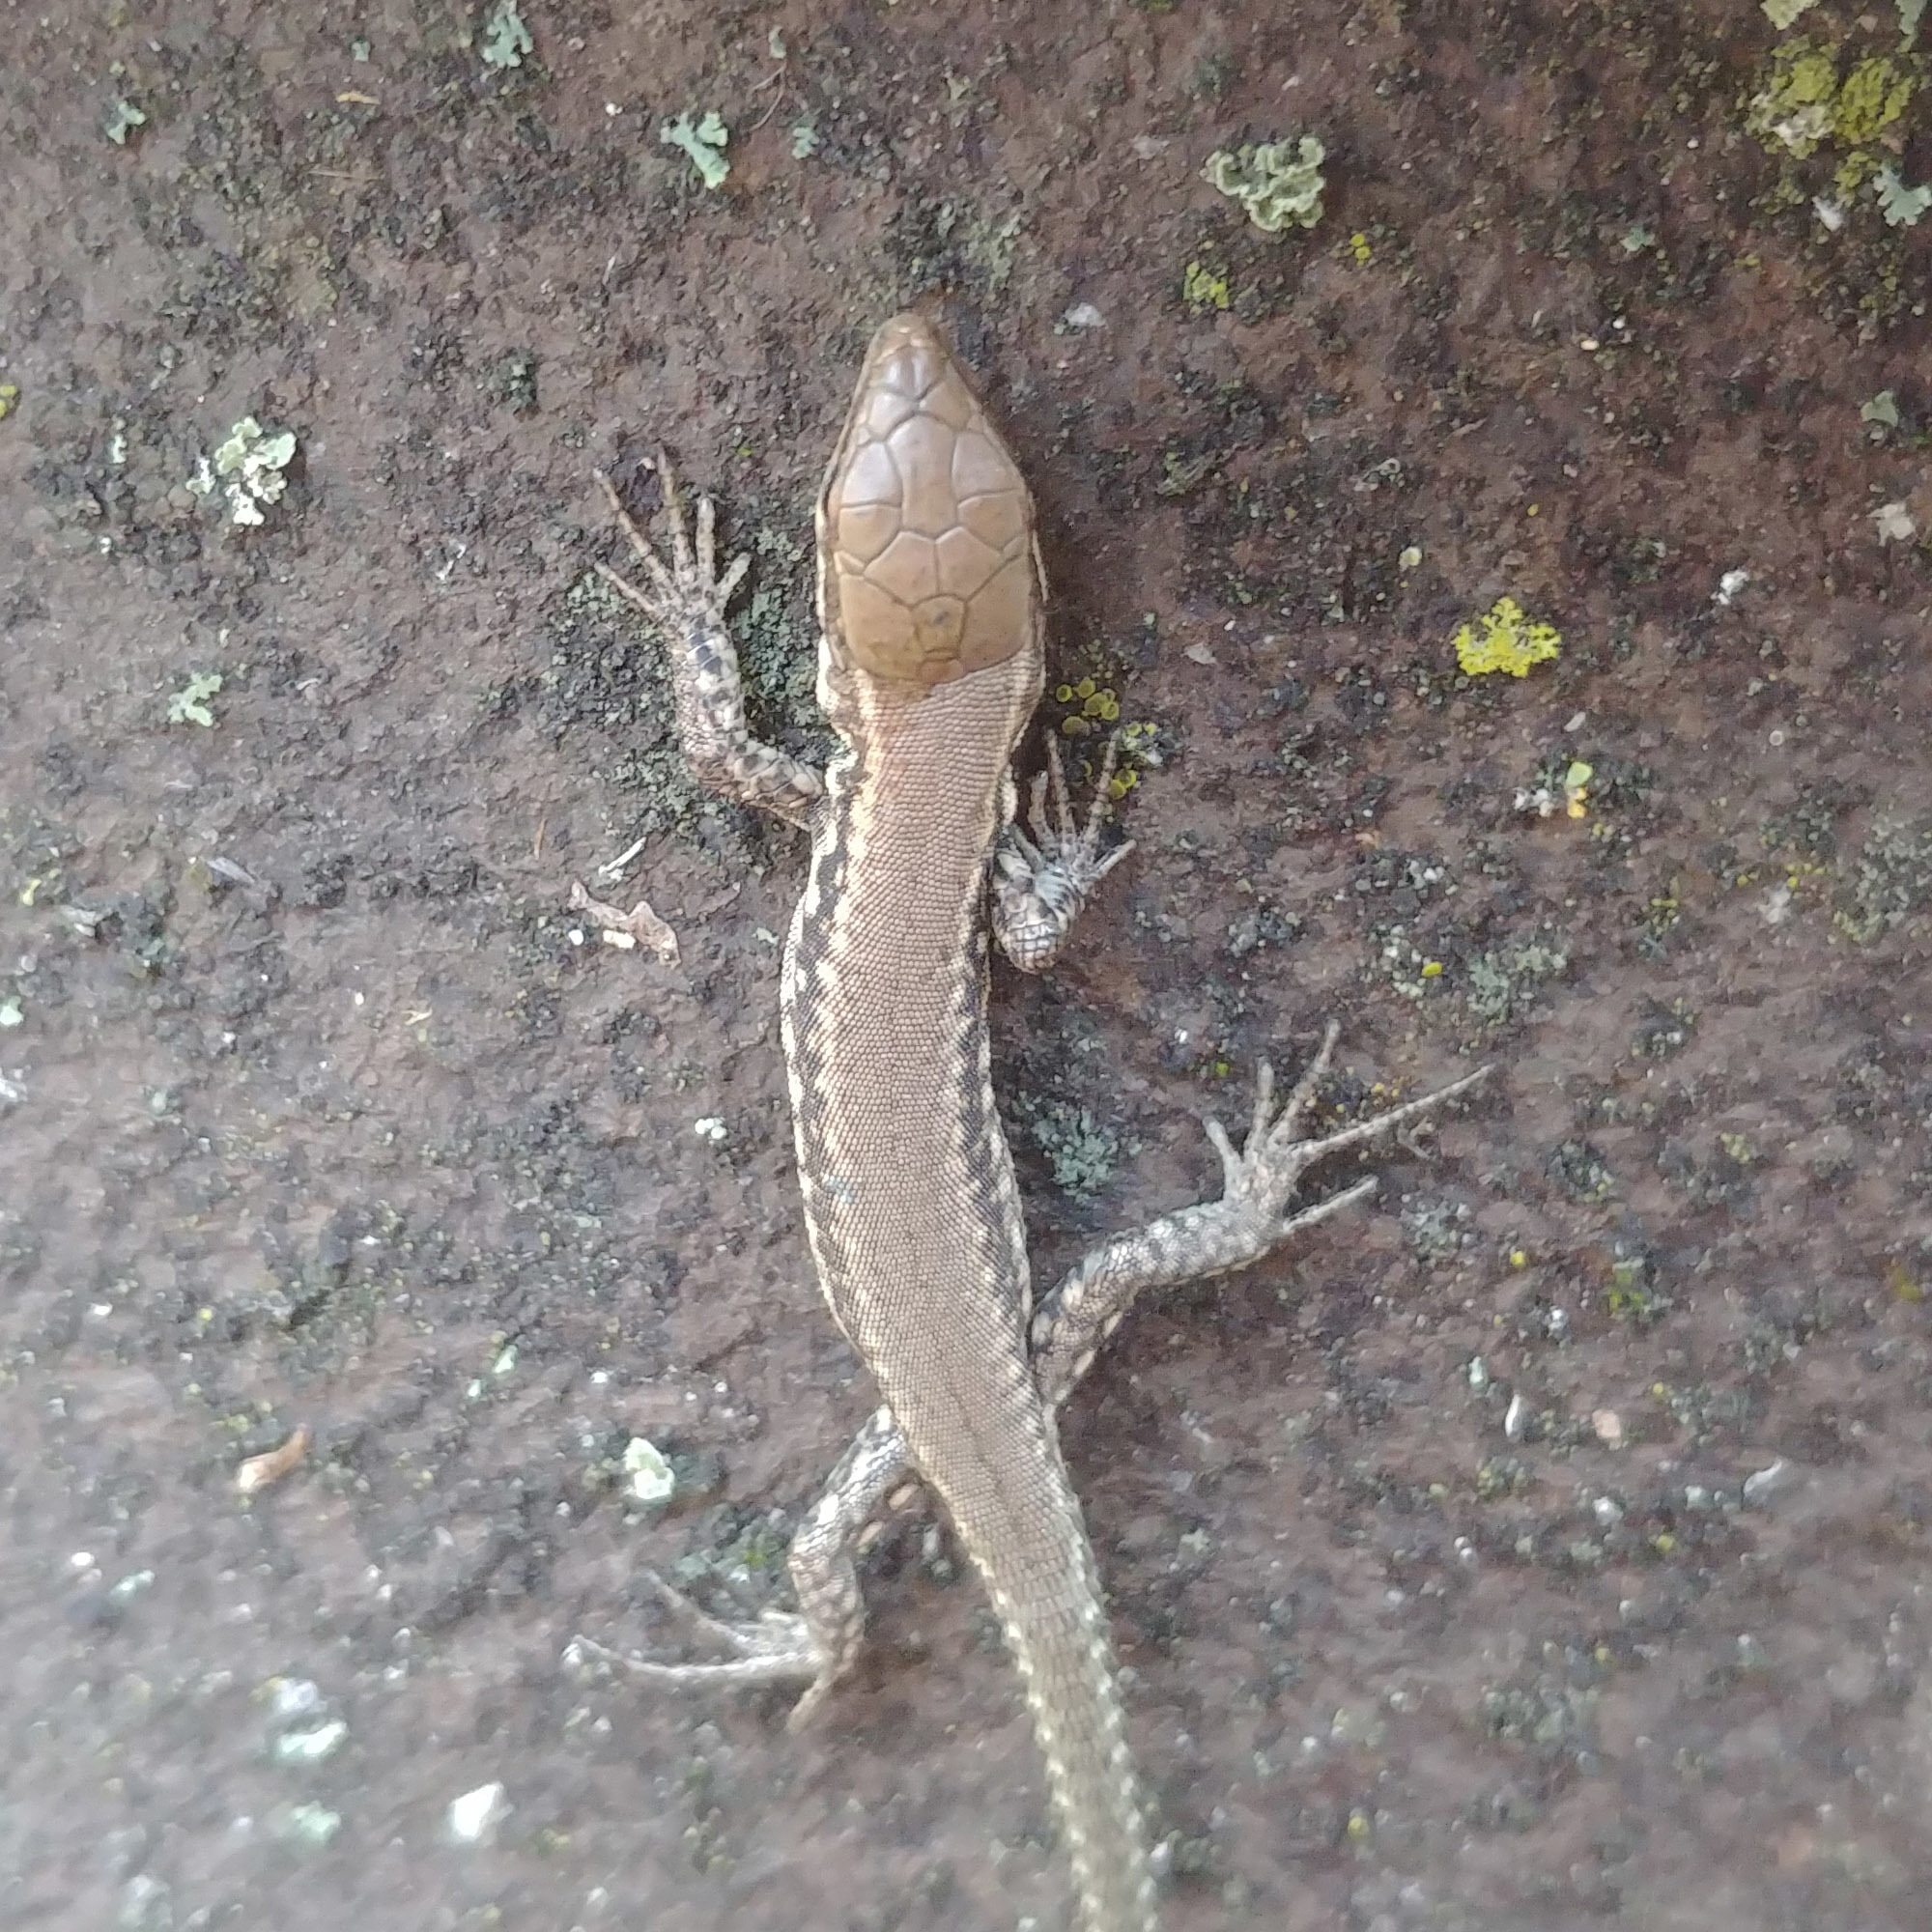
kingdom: Animalia
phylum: Chordata
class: Squamata
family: Lacertidae
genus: Podarcis
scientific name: Podarcis muralis
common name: Common wall lizard
